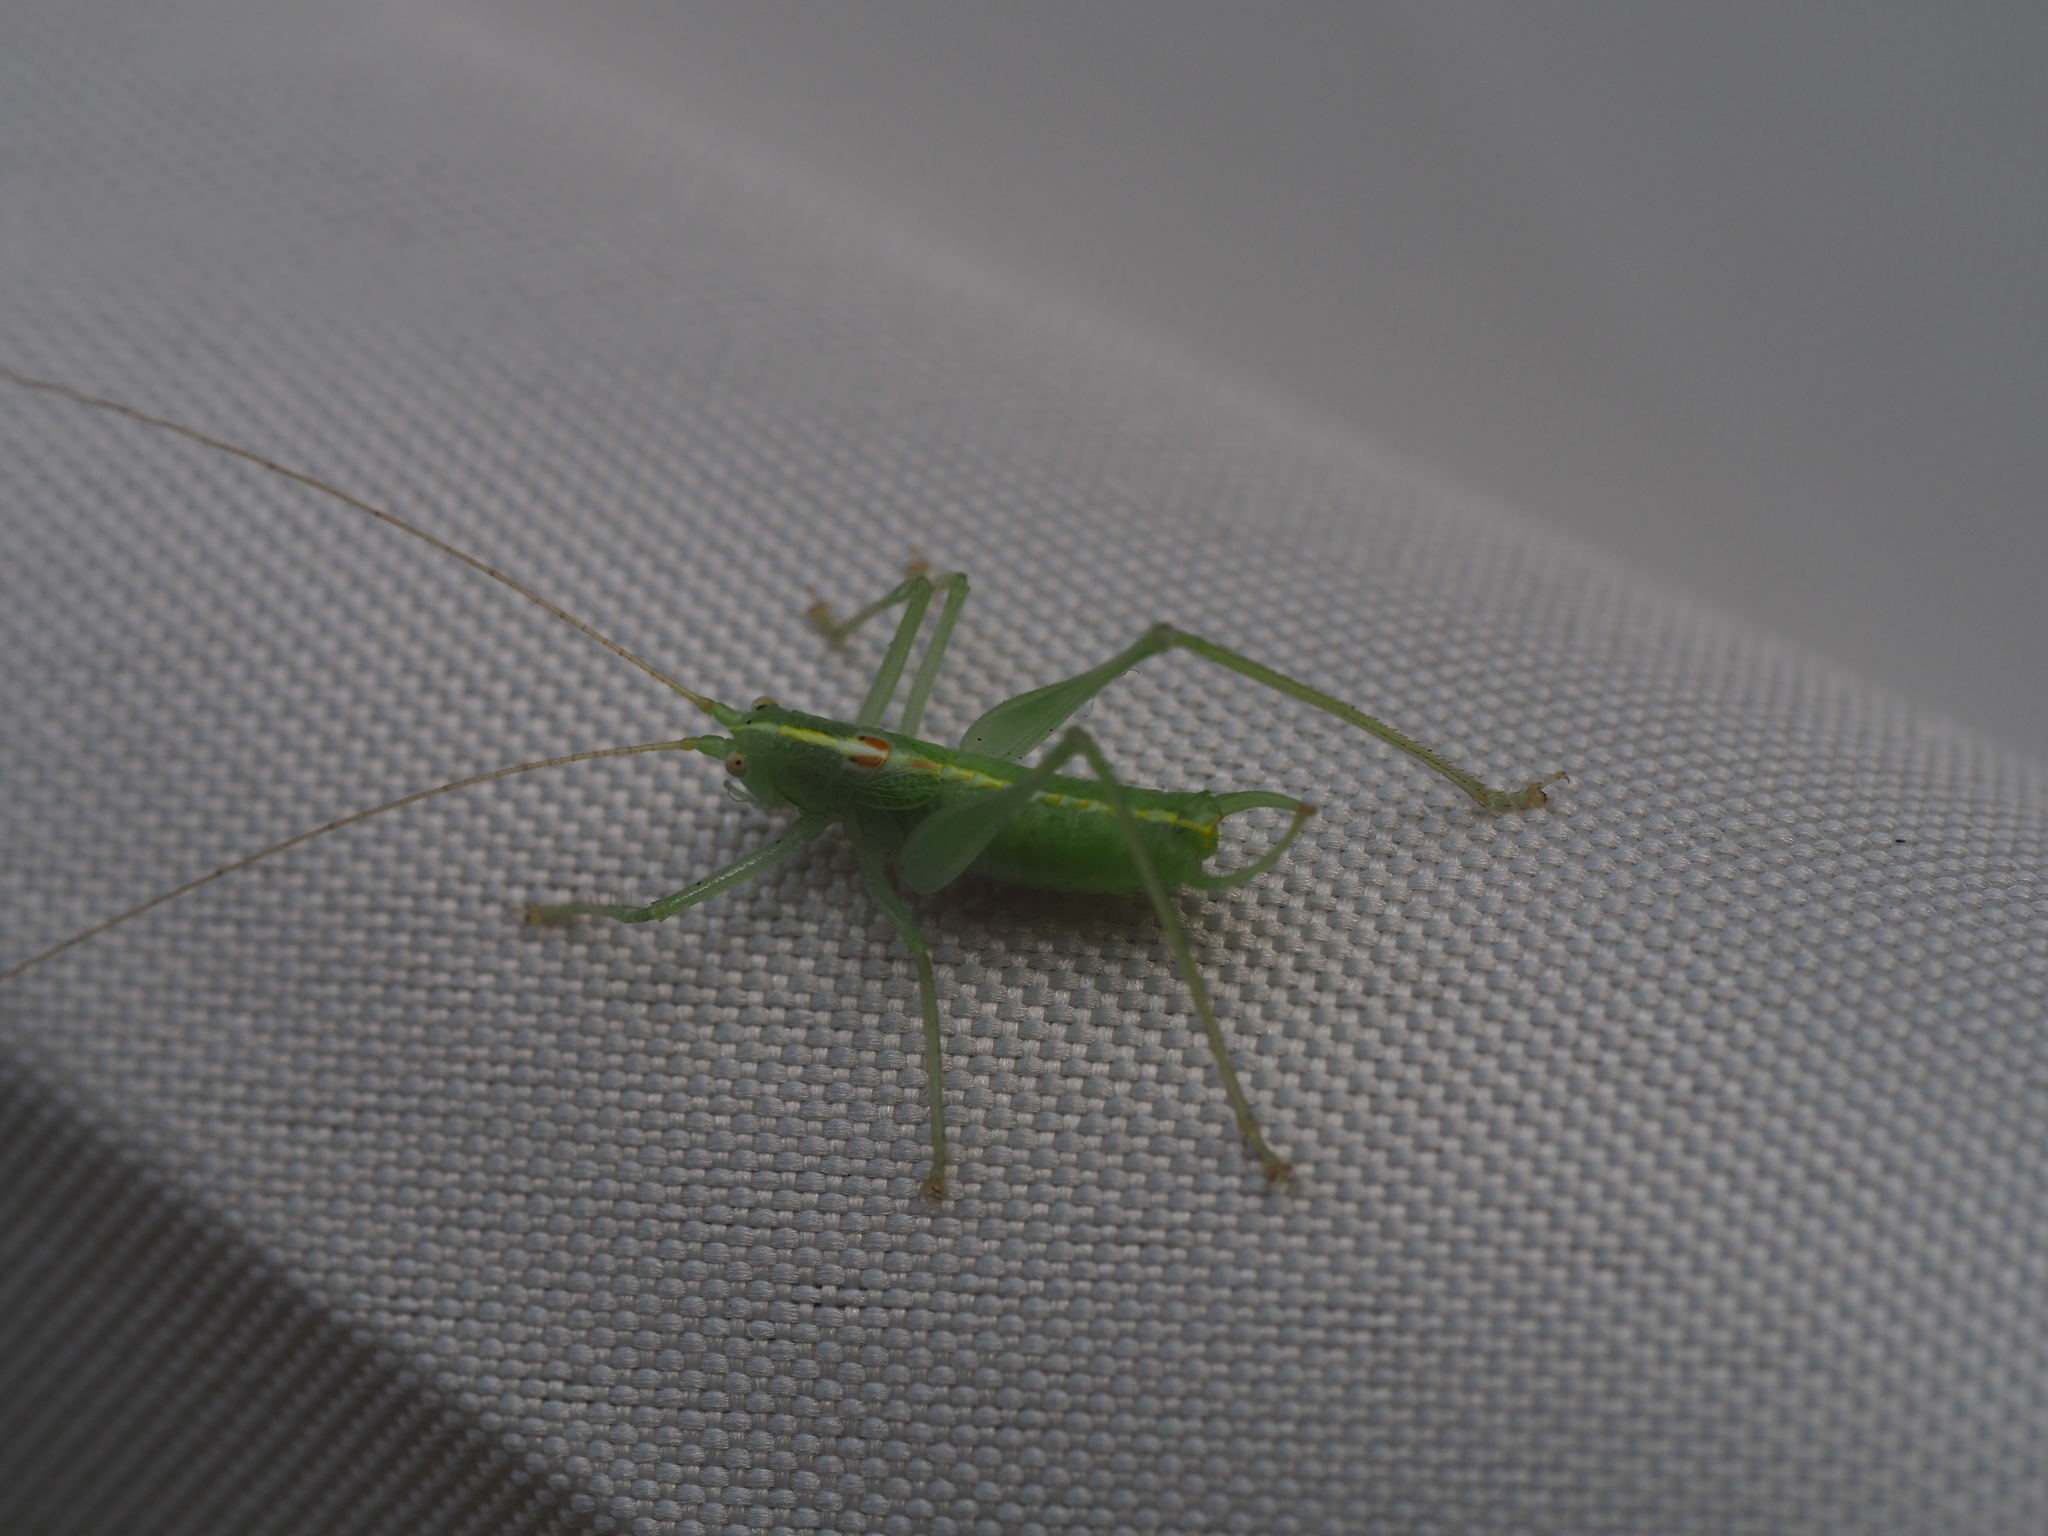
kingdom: Animalia
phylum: Arthropoda
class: Insecta
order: Orthoptera
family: Tettigoniidae
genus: Meconema
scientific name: Meconema meridionale
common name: Southern oak bush-cricket
